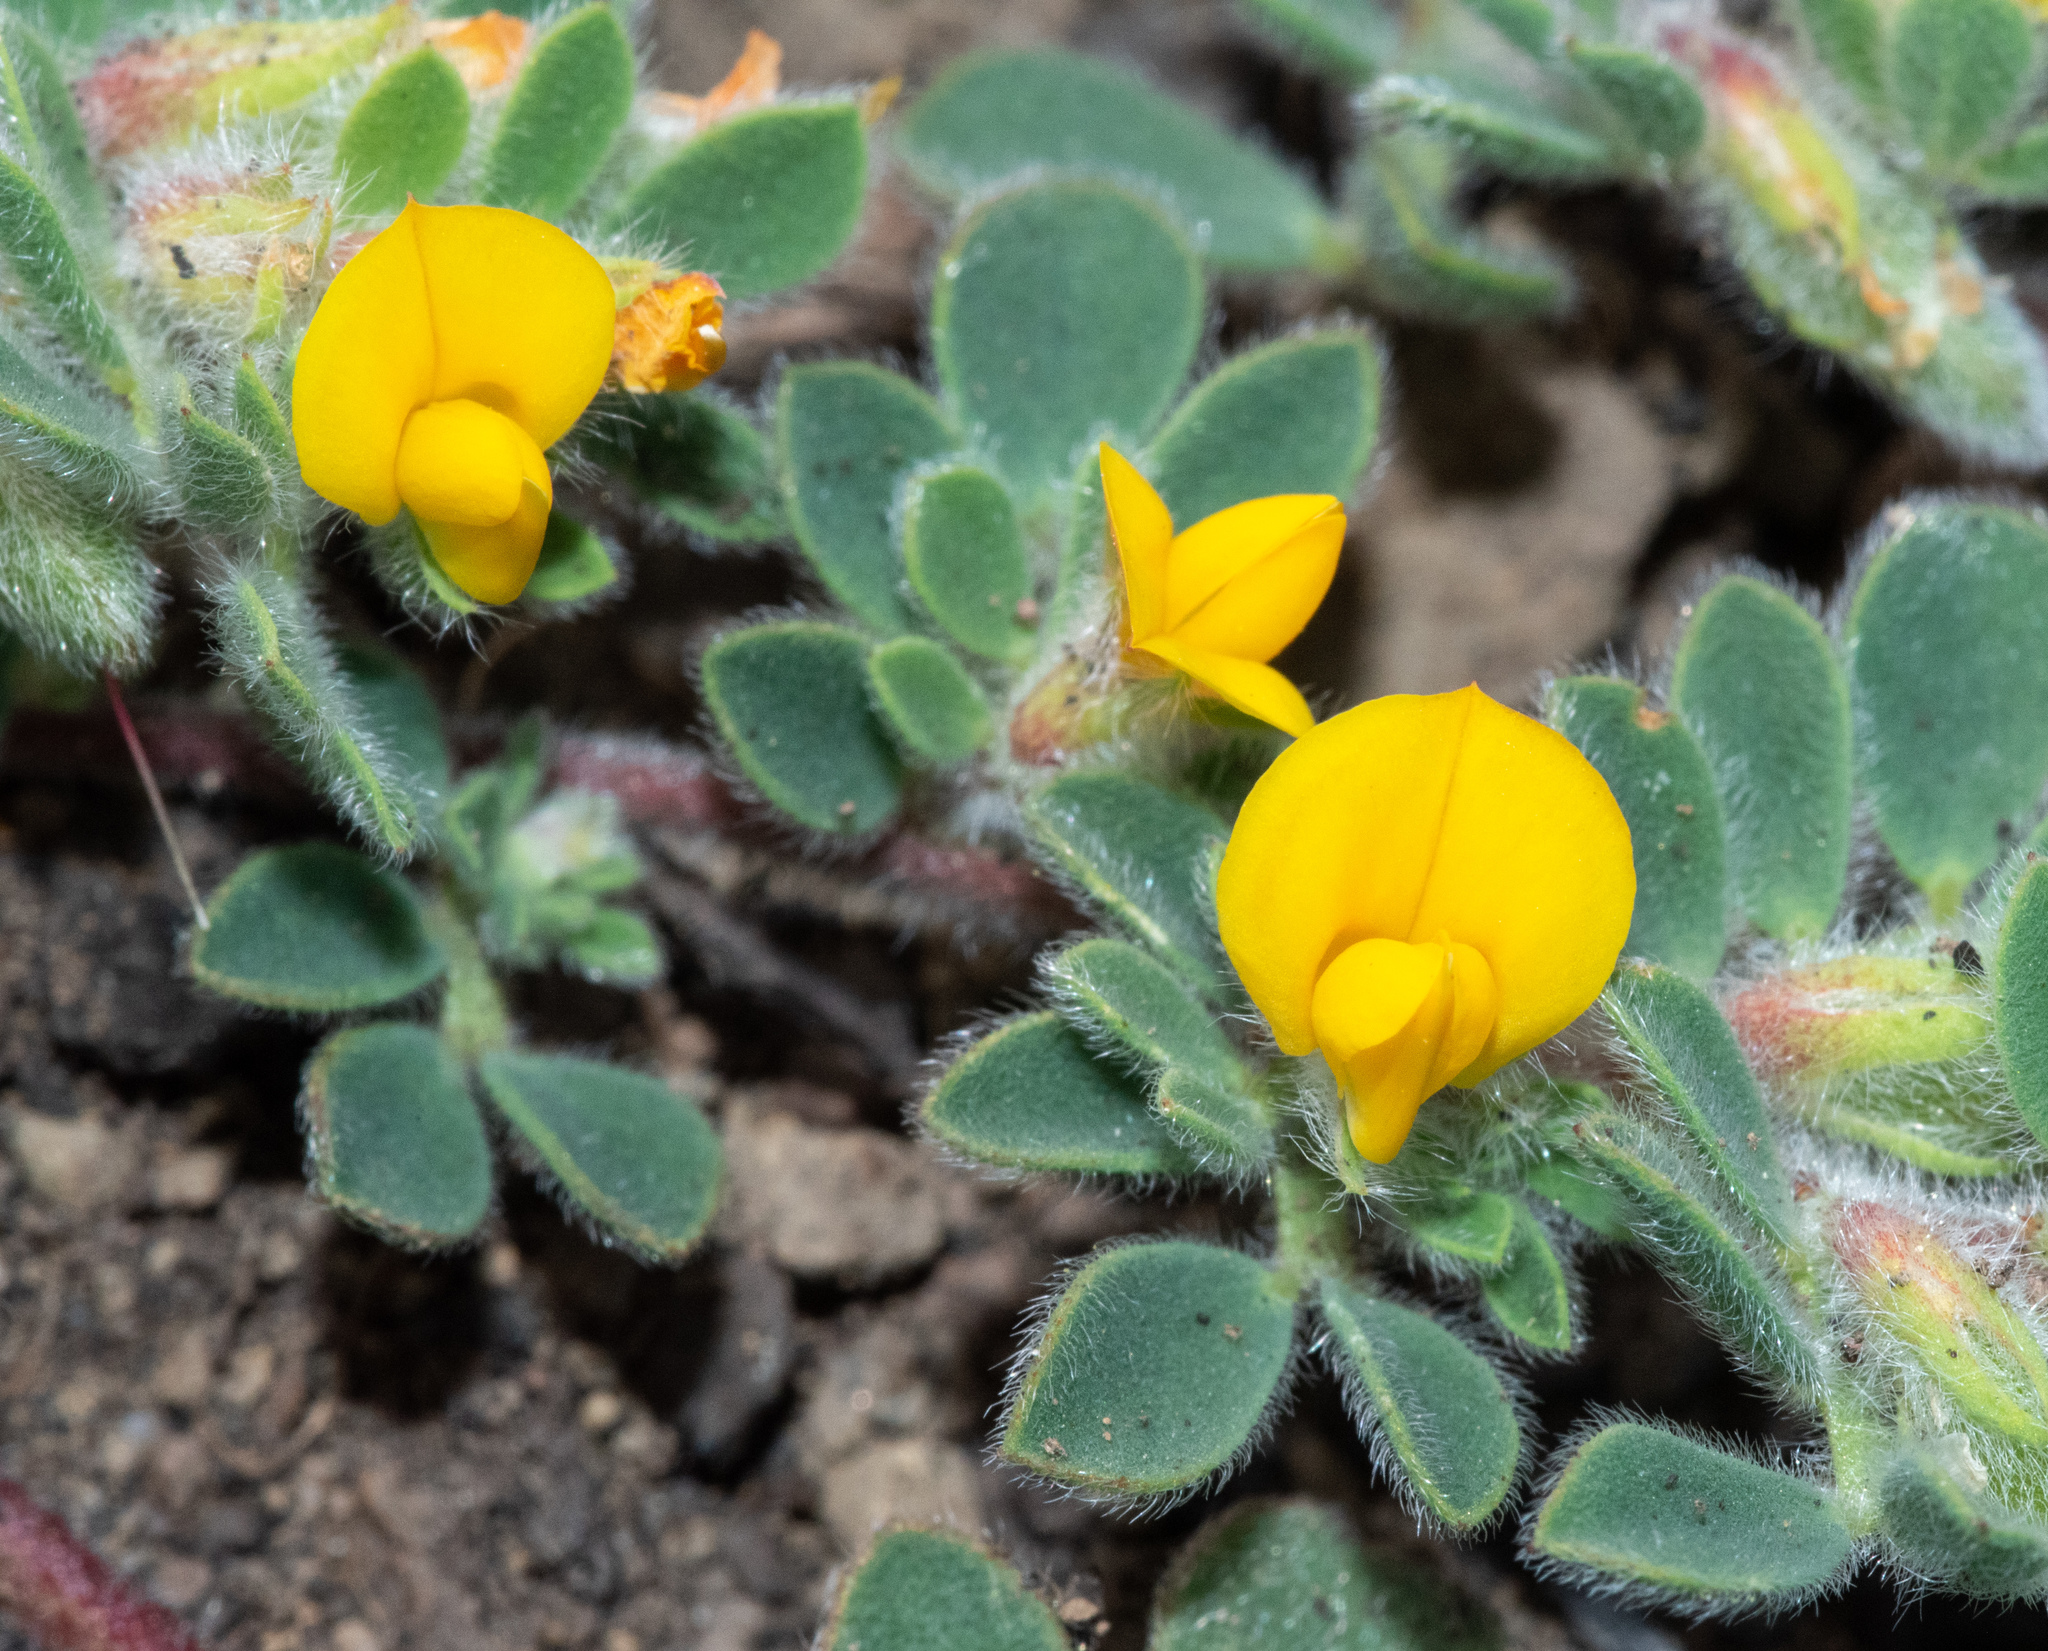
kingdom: Plantae
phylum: Tracheophyta
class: Magnoliopsida
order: Fabales
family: Fabaceae
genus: Acmispon
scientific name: Acmispon brachycarpus
